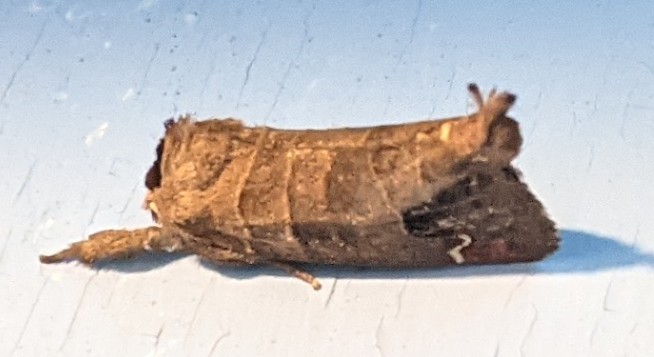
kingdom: Animalia
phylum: Arthropoda
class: Insecta
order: Lepidoptera
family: Notodontidae
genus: Clostera
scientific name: Clostera albosigma
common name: Sigmoid prominent
